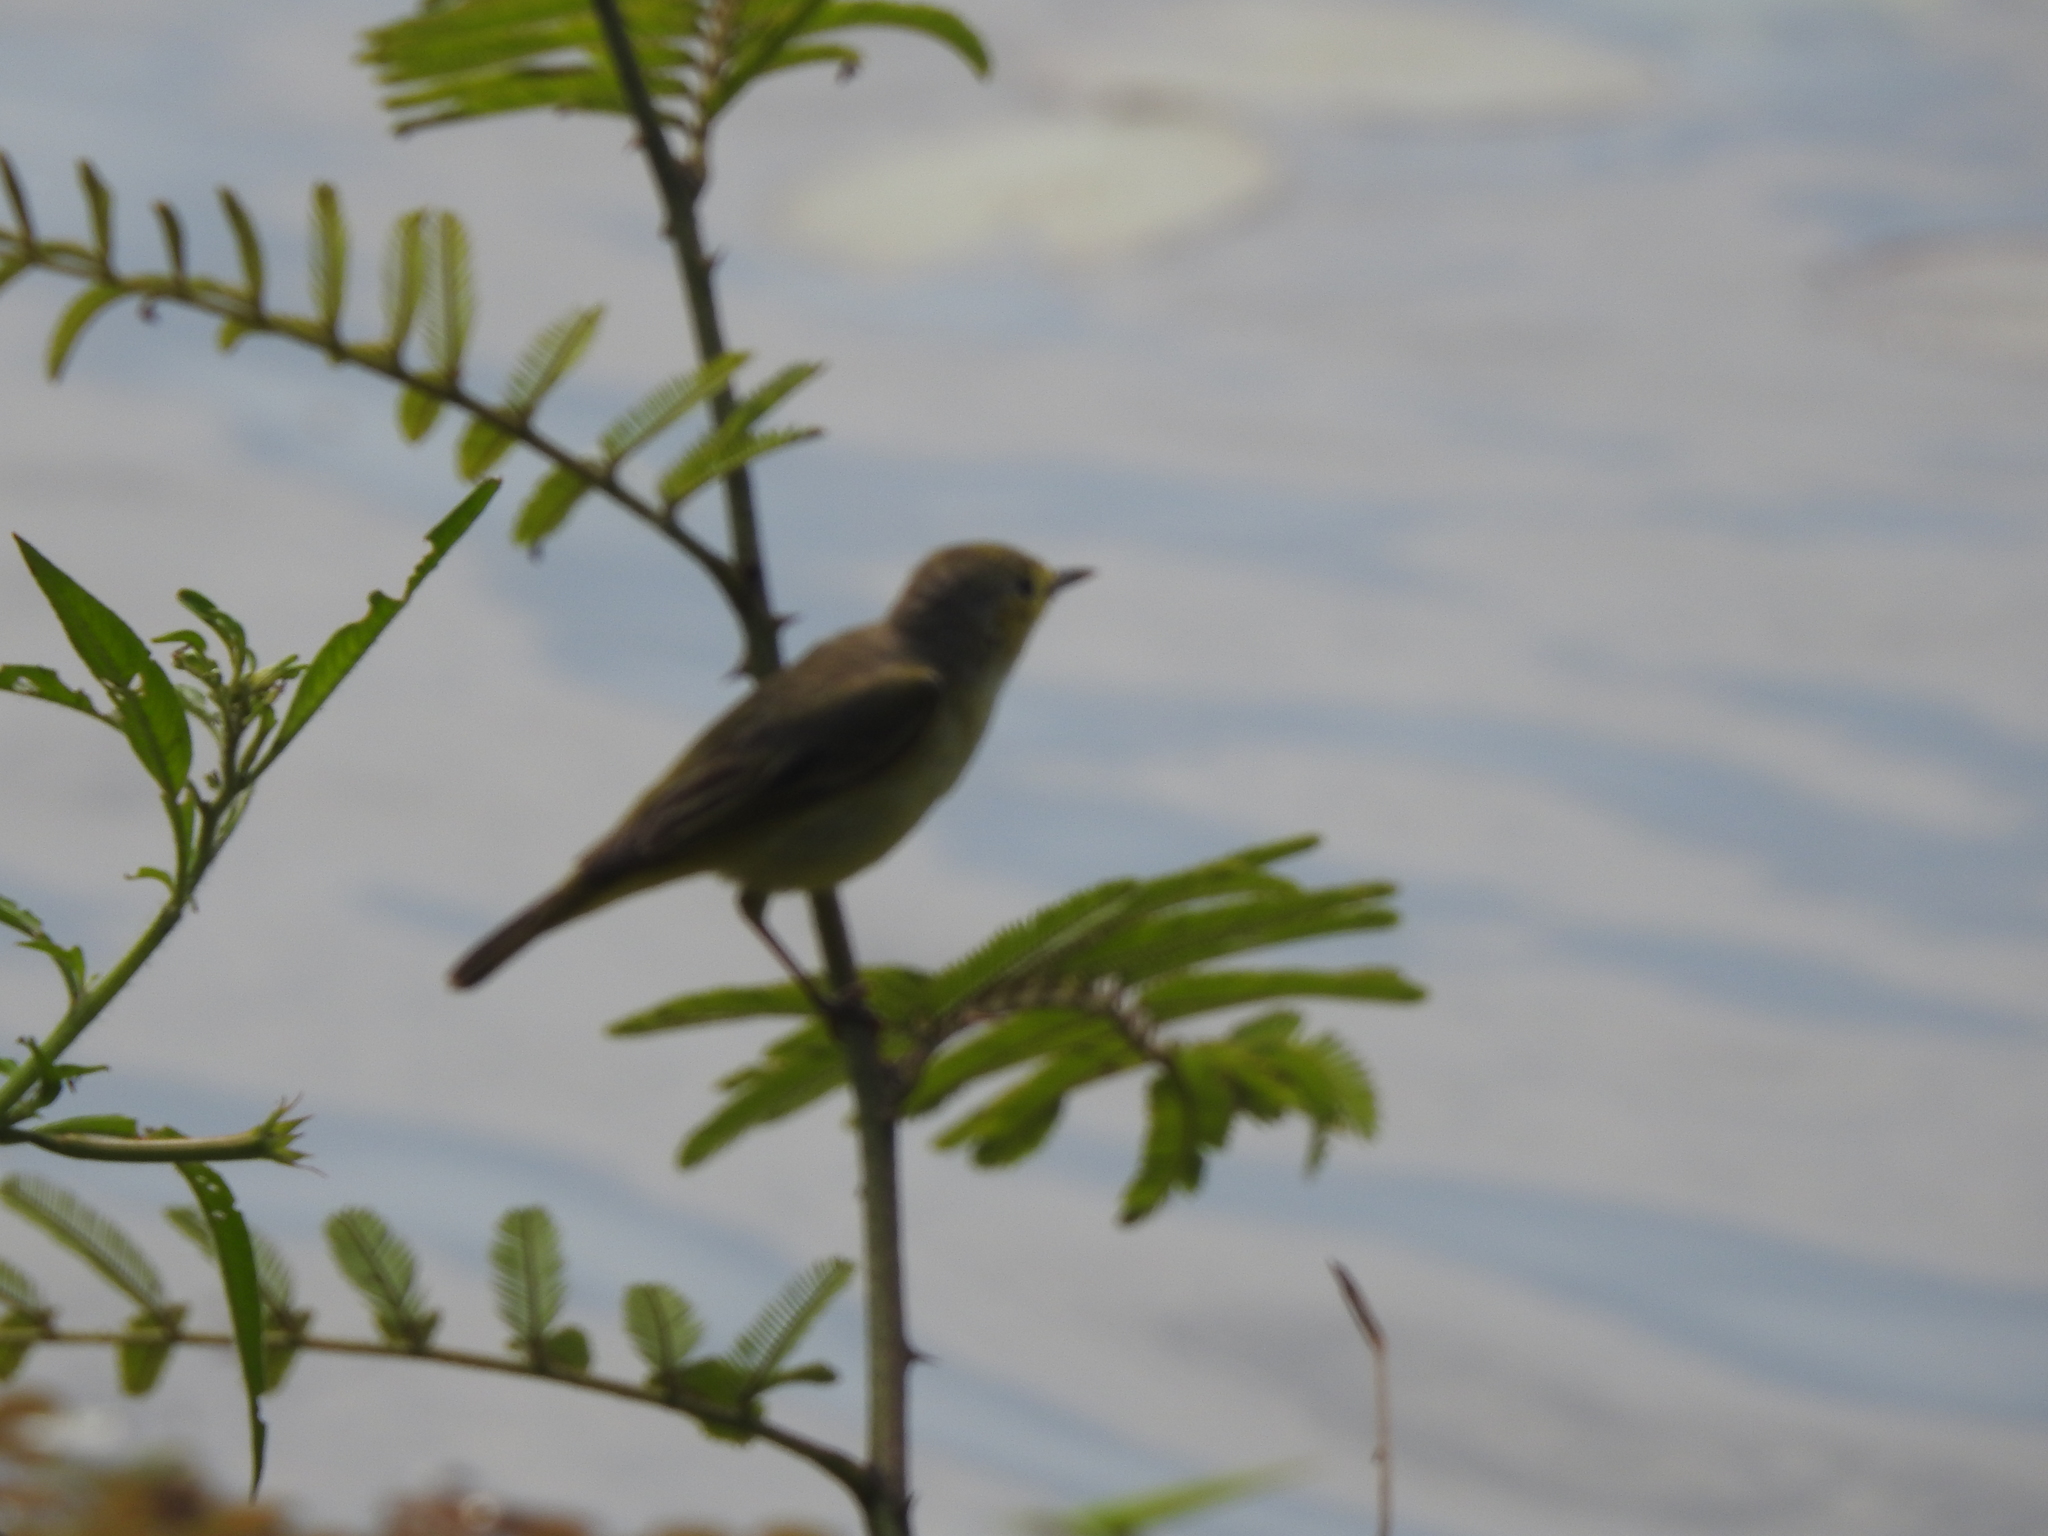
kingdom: Animalia
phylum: Chordata
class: Aves
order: Passeriformes
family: Parulidae
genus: Setophaga
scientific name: Setophaga petechia
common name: Yellow warbler
